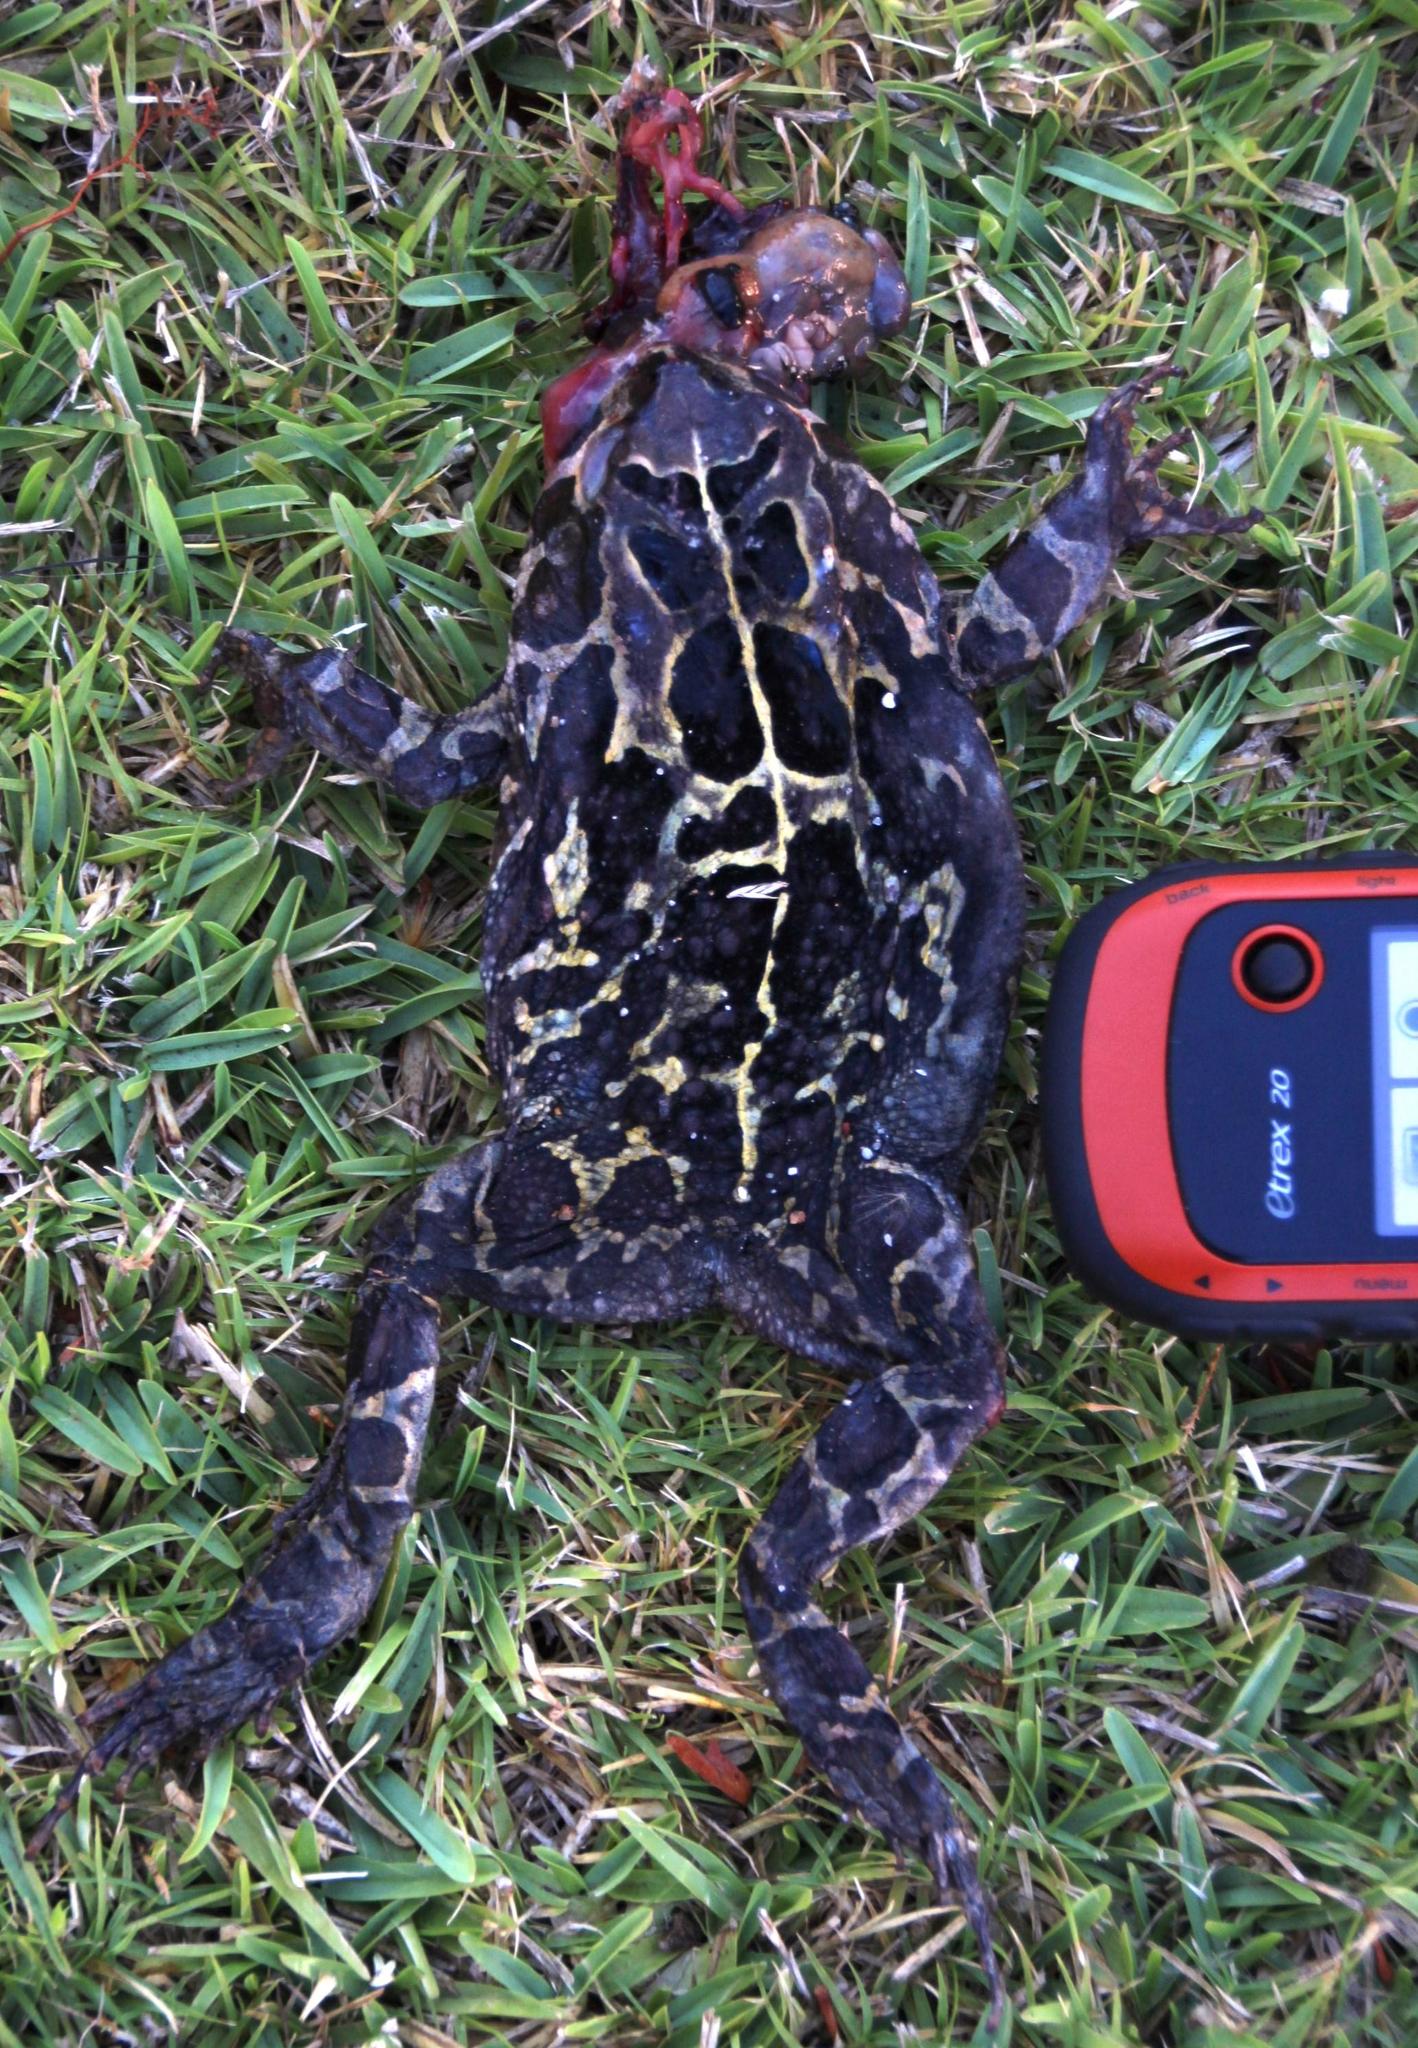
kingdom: Animalia
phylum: Chordata
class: Amphibia
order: Anura
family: Bufonidae
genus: Sclerophrys
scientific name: Sclerophrys pantherina
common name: Panther toad
